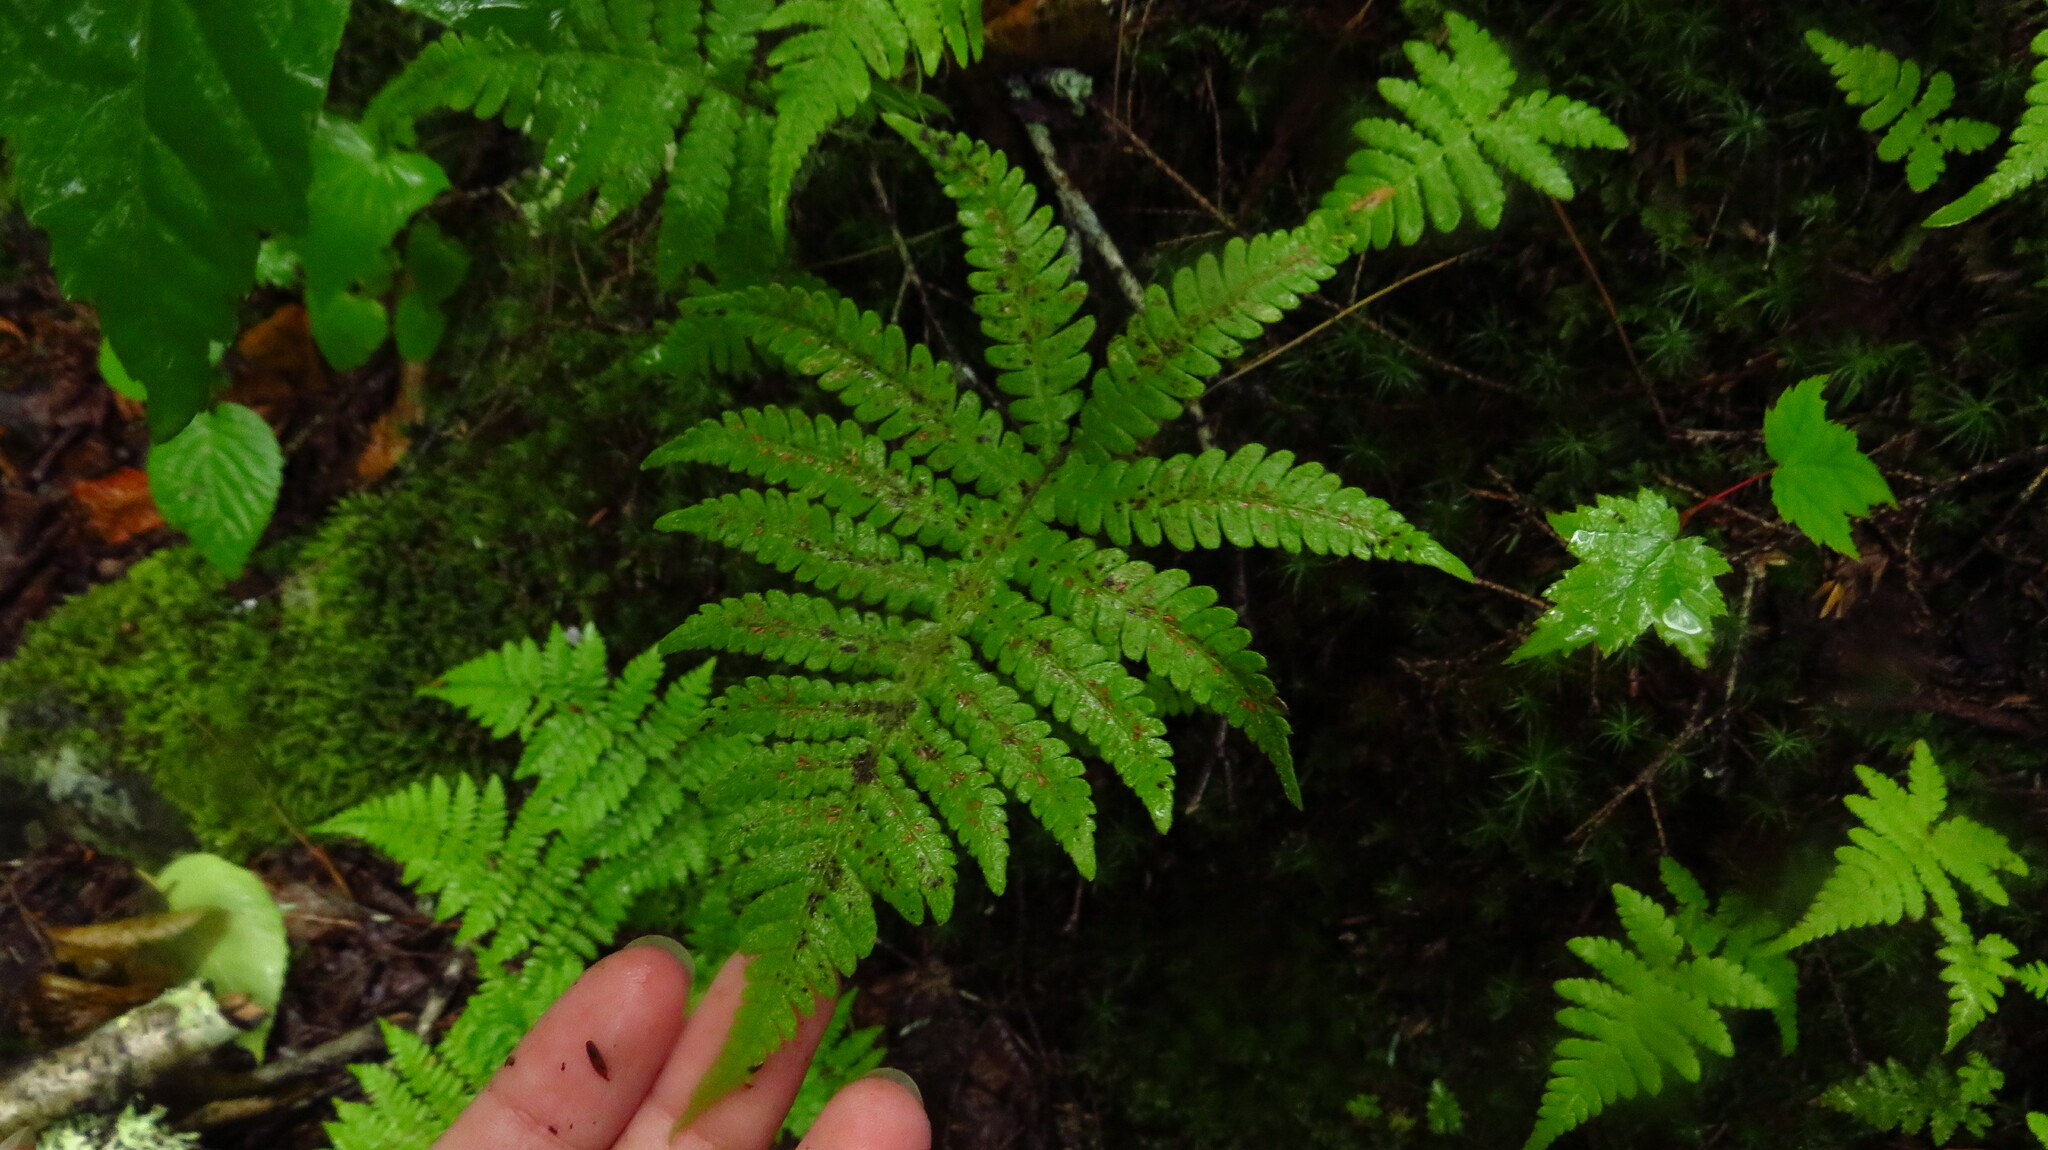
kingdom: Plantae
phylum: Tracheophyta
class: Polypodiopsida
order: Polypodiales
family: Thelypteridaceae
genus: Phegopteris
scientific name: Phegopteris connectilis
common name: Beech fern
